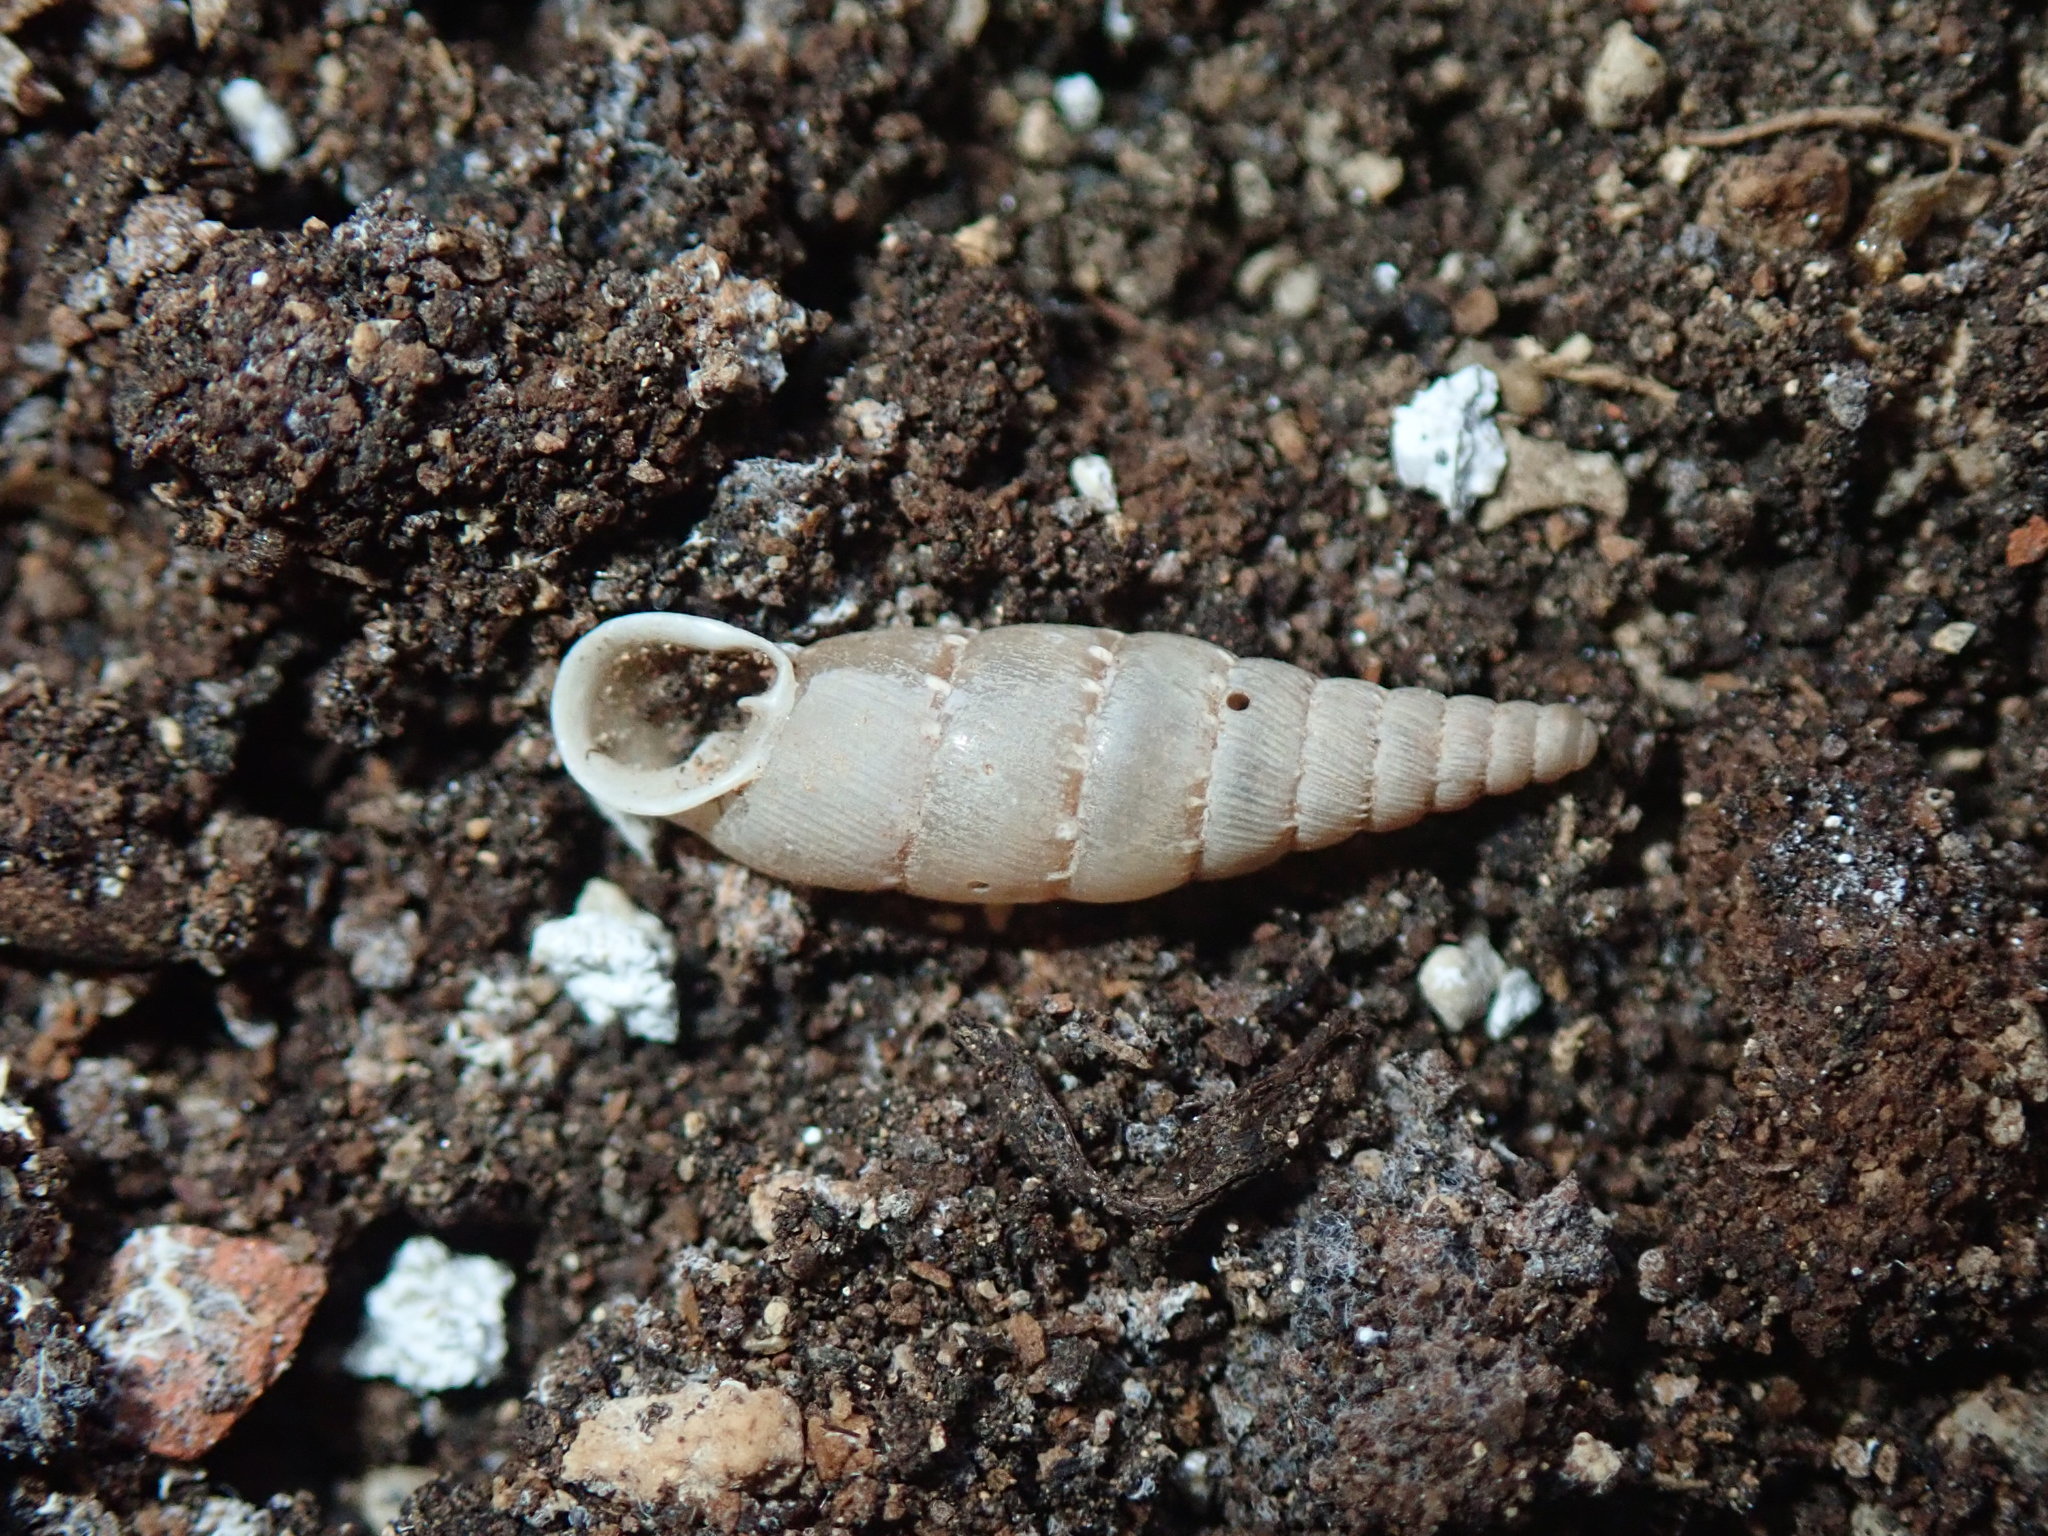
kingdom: Animalia
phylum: Mollusca
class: Gastropoda
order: Stylommatophora
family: Clausiliidae
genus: Papillifera
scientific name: Papillifera papillaris
